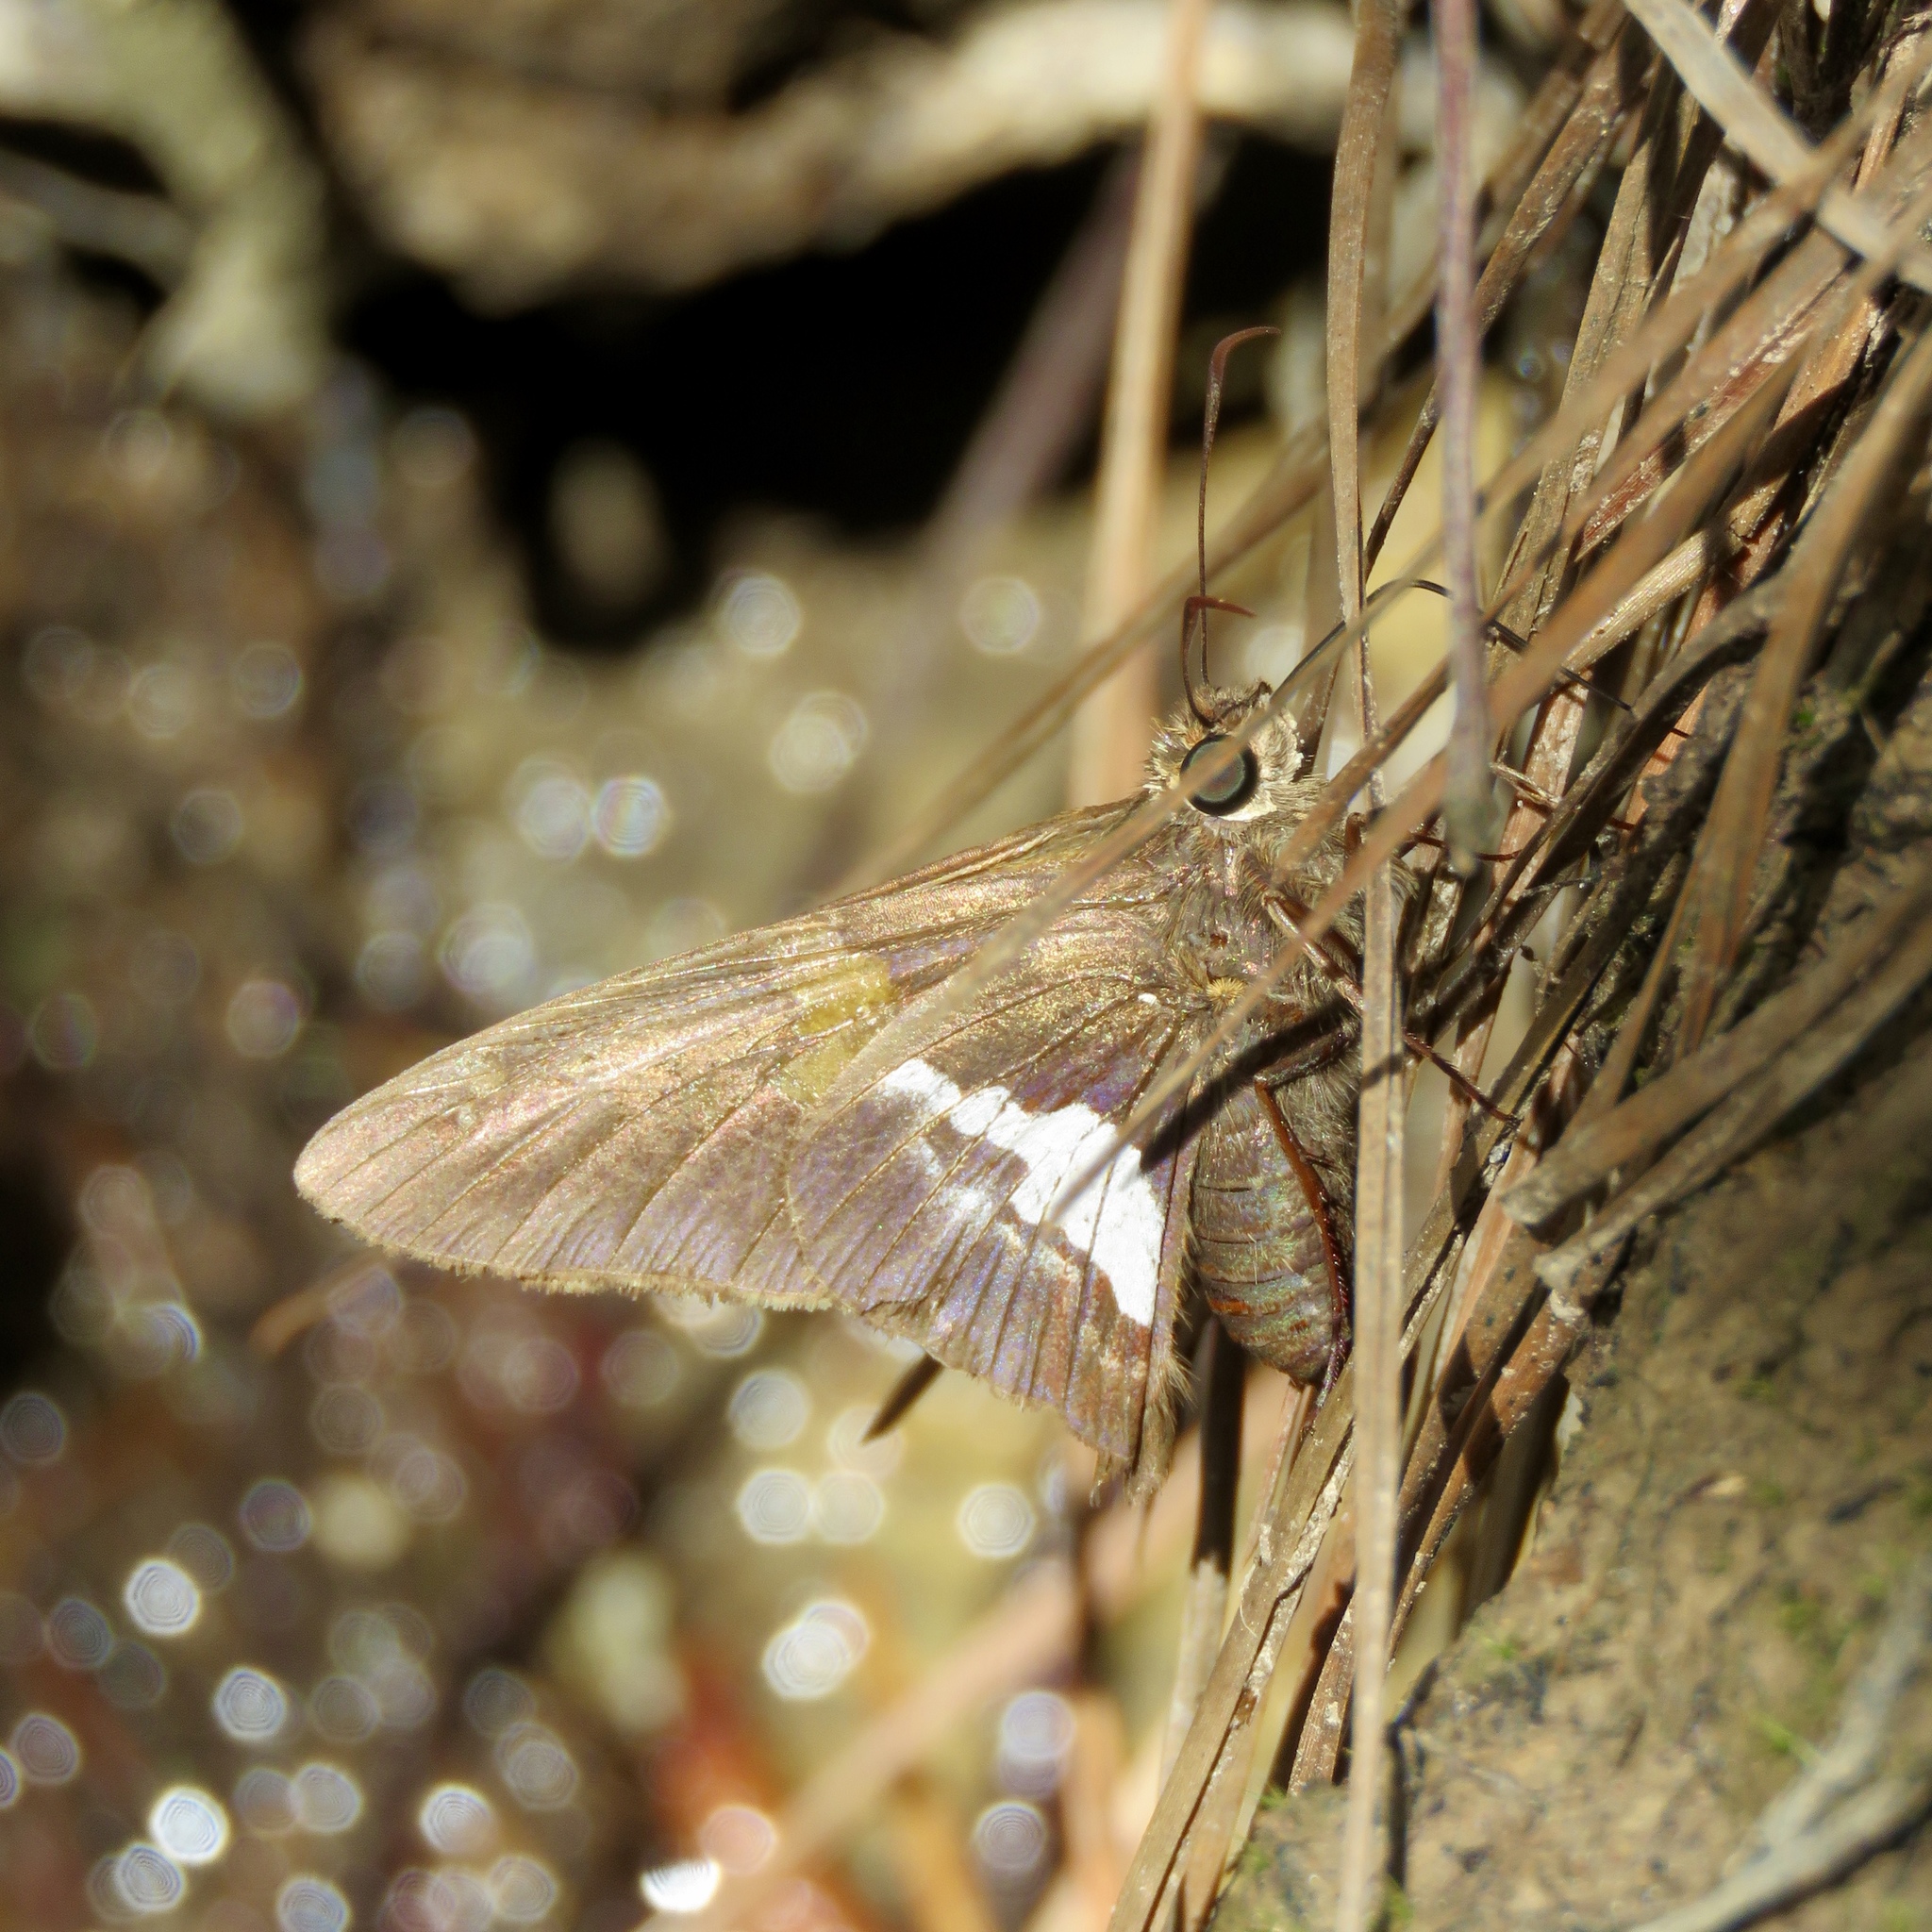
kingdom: Animalia
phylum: Arthropoda
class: Insecta
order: Lepidoptera
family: Hesperiidae
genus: Epargyreus
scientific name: Epargyreus clarus
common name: Silver-spotted skipper
